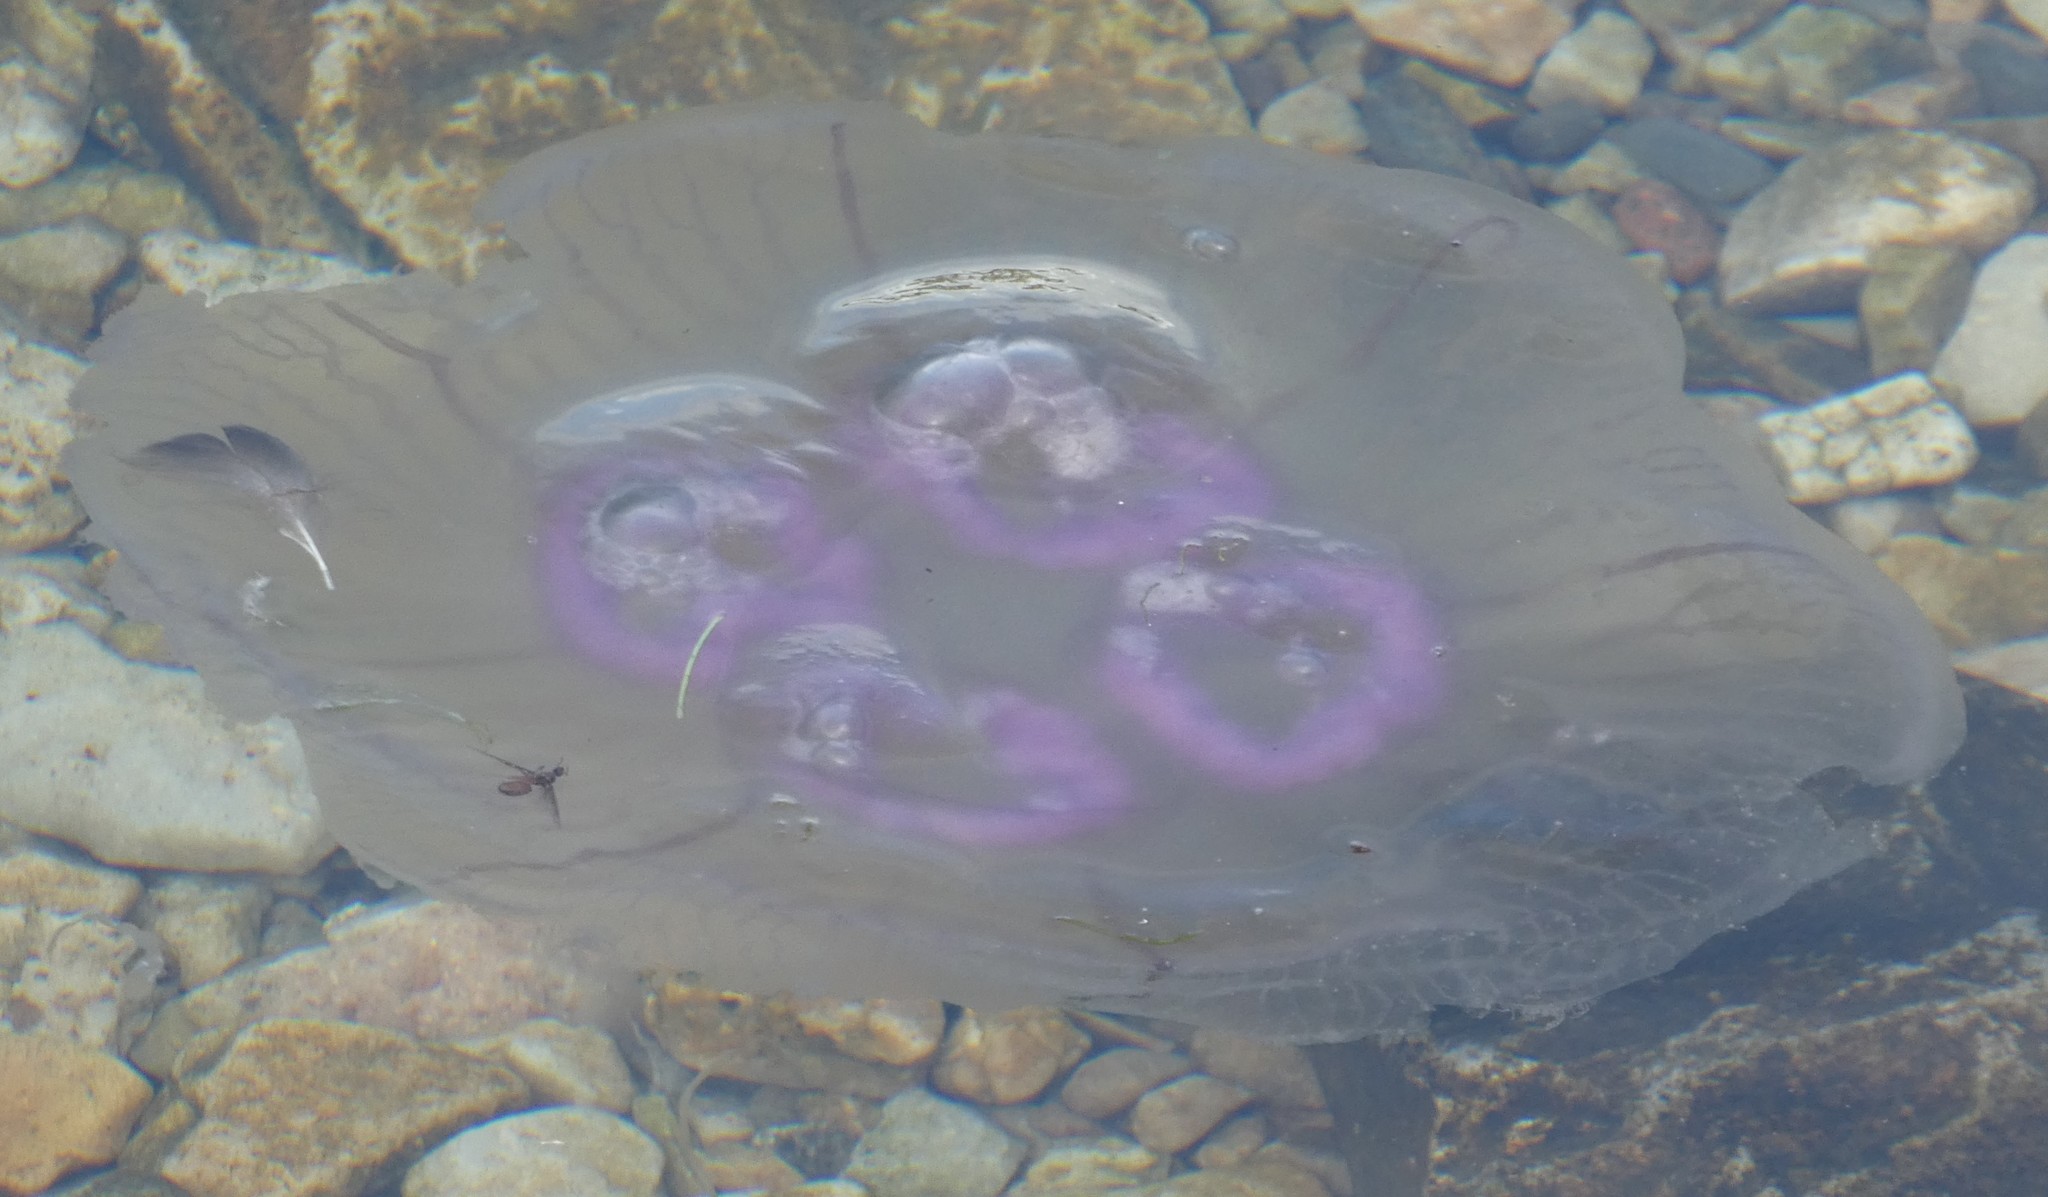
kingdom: Animalia
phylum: Cnidaria
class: Scyphozoa
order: Semaeostomeae
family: Ulmaridae
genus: Aurelia
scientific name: Aurelia aurita
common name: Moon jellyfish
